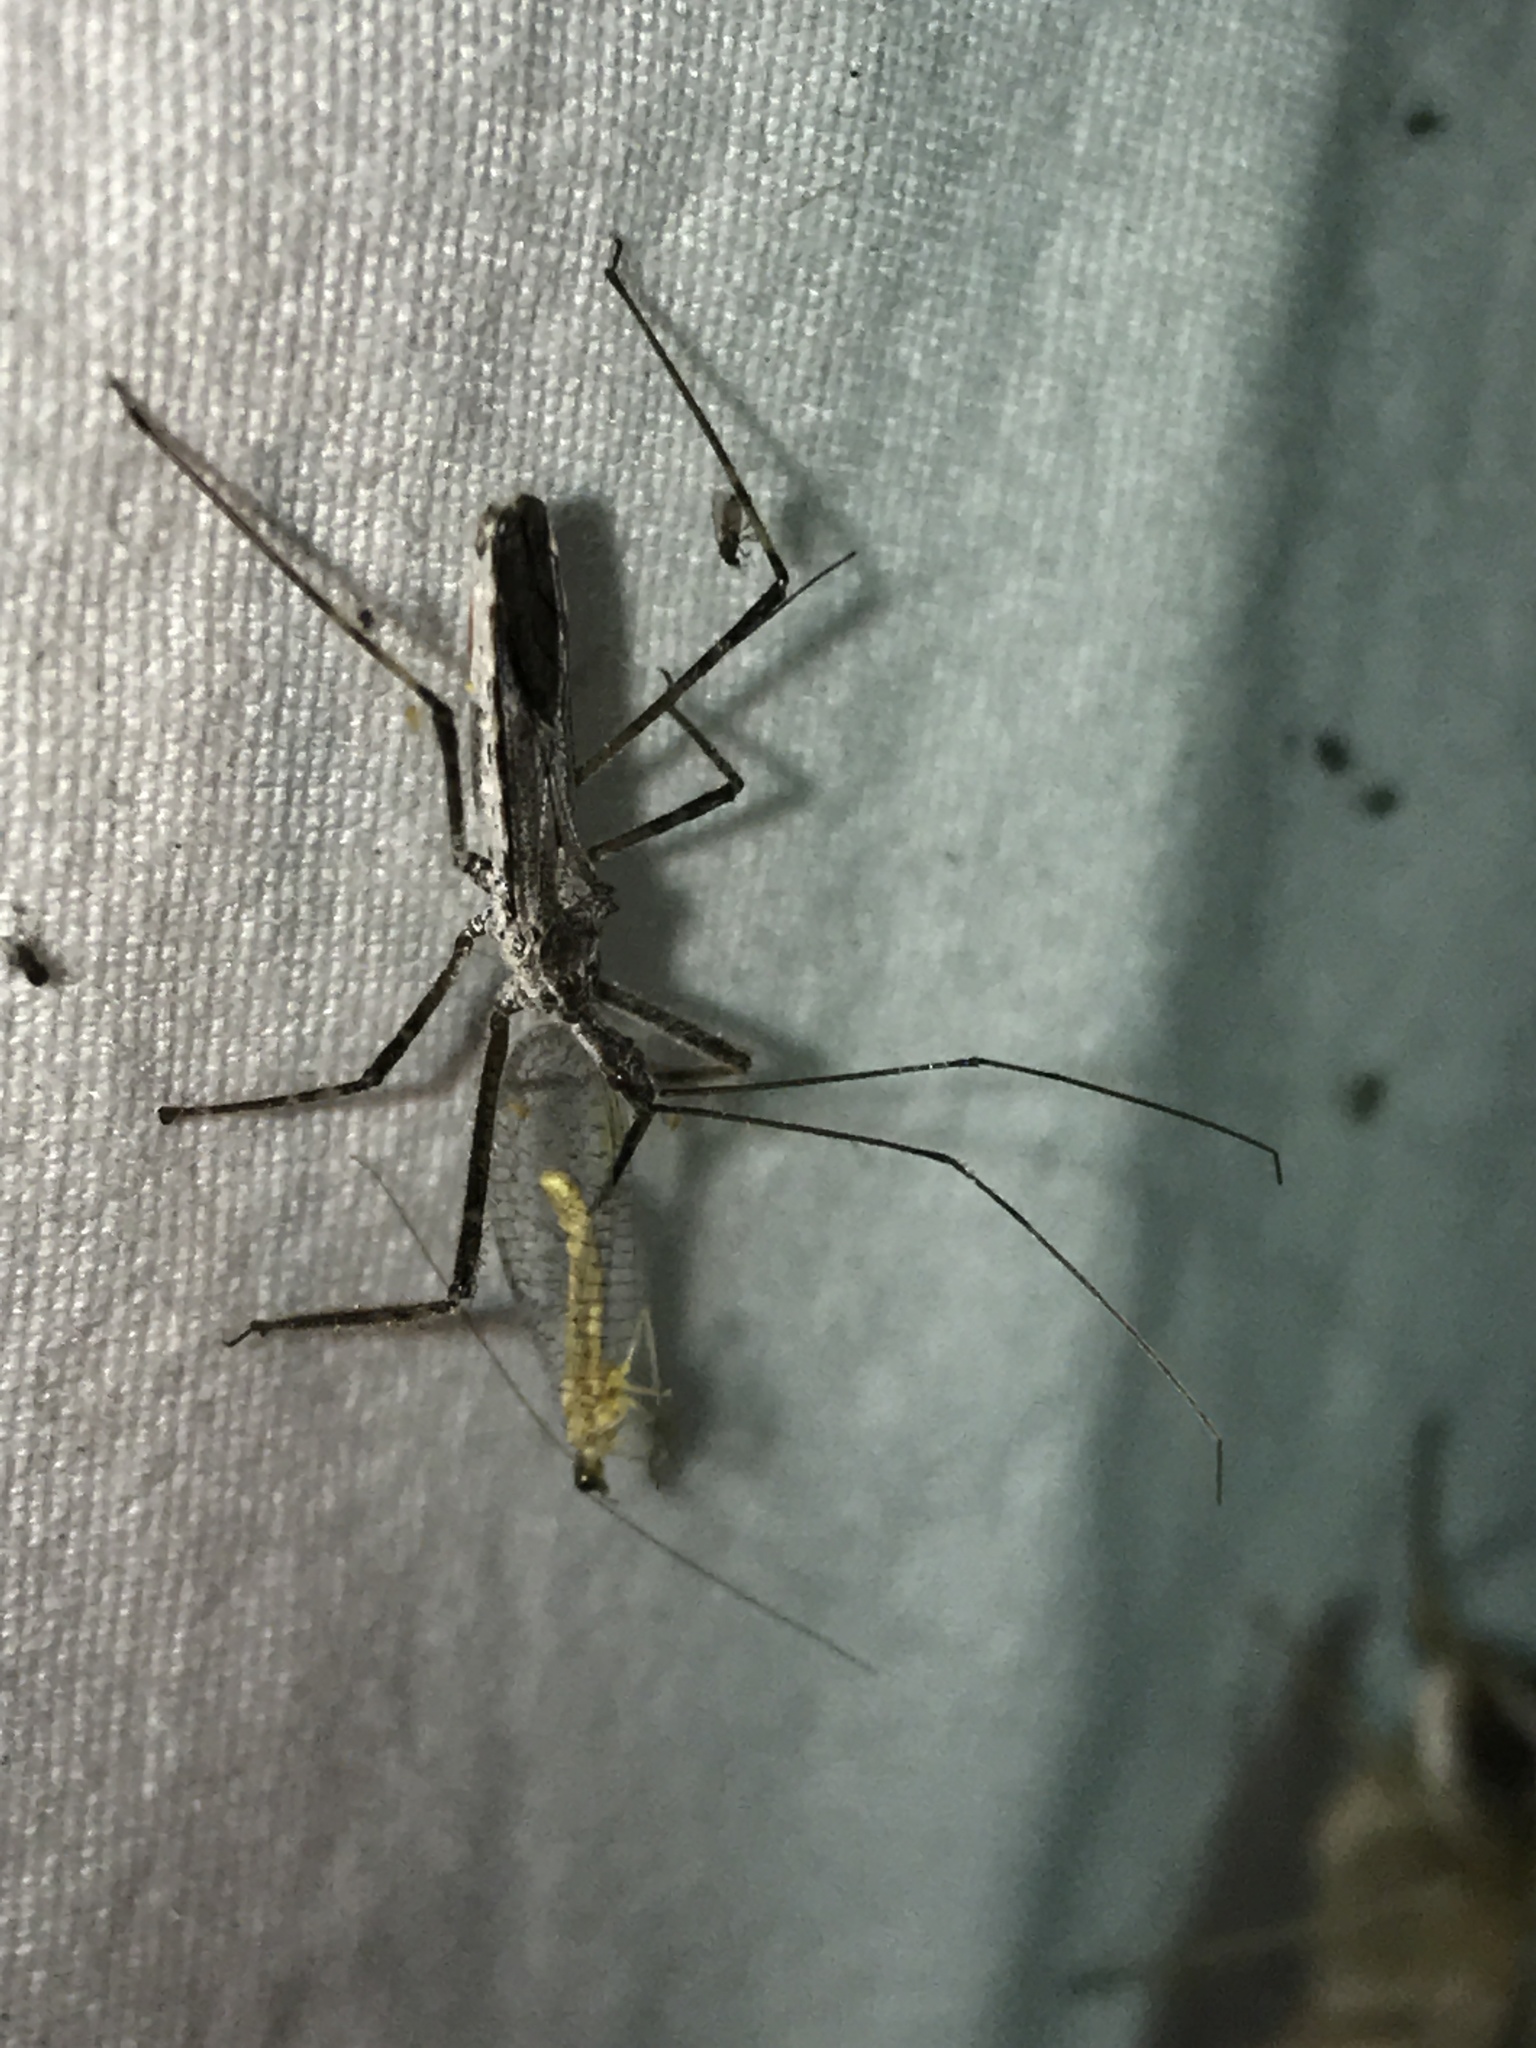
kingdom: Animalia
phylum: Arthropoda
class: Insecta
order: Hemiptera
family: Reduviidae
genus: Zelus
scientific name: Zelus tetracanthus
